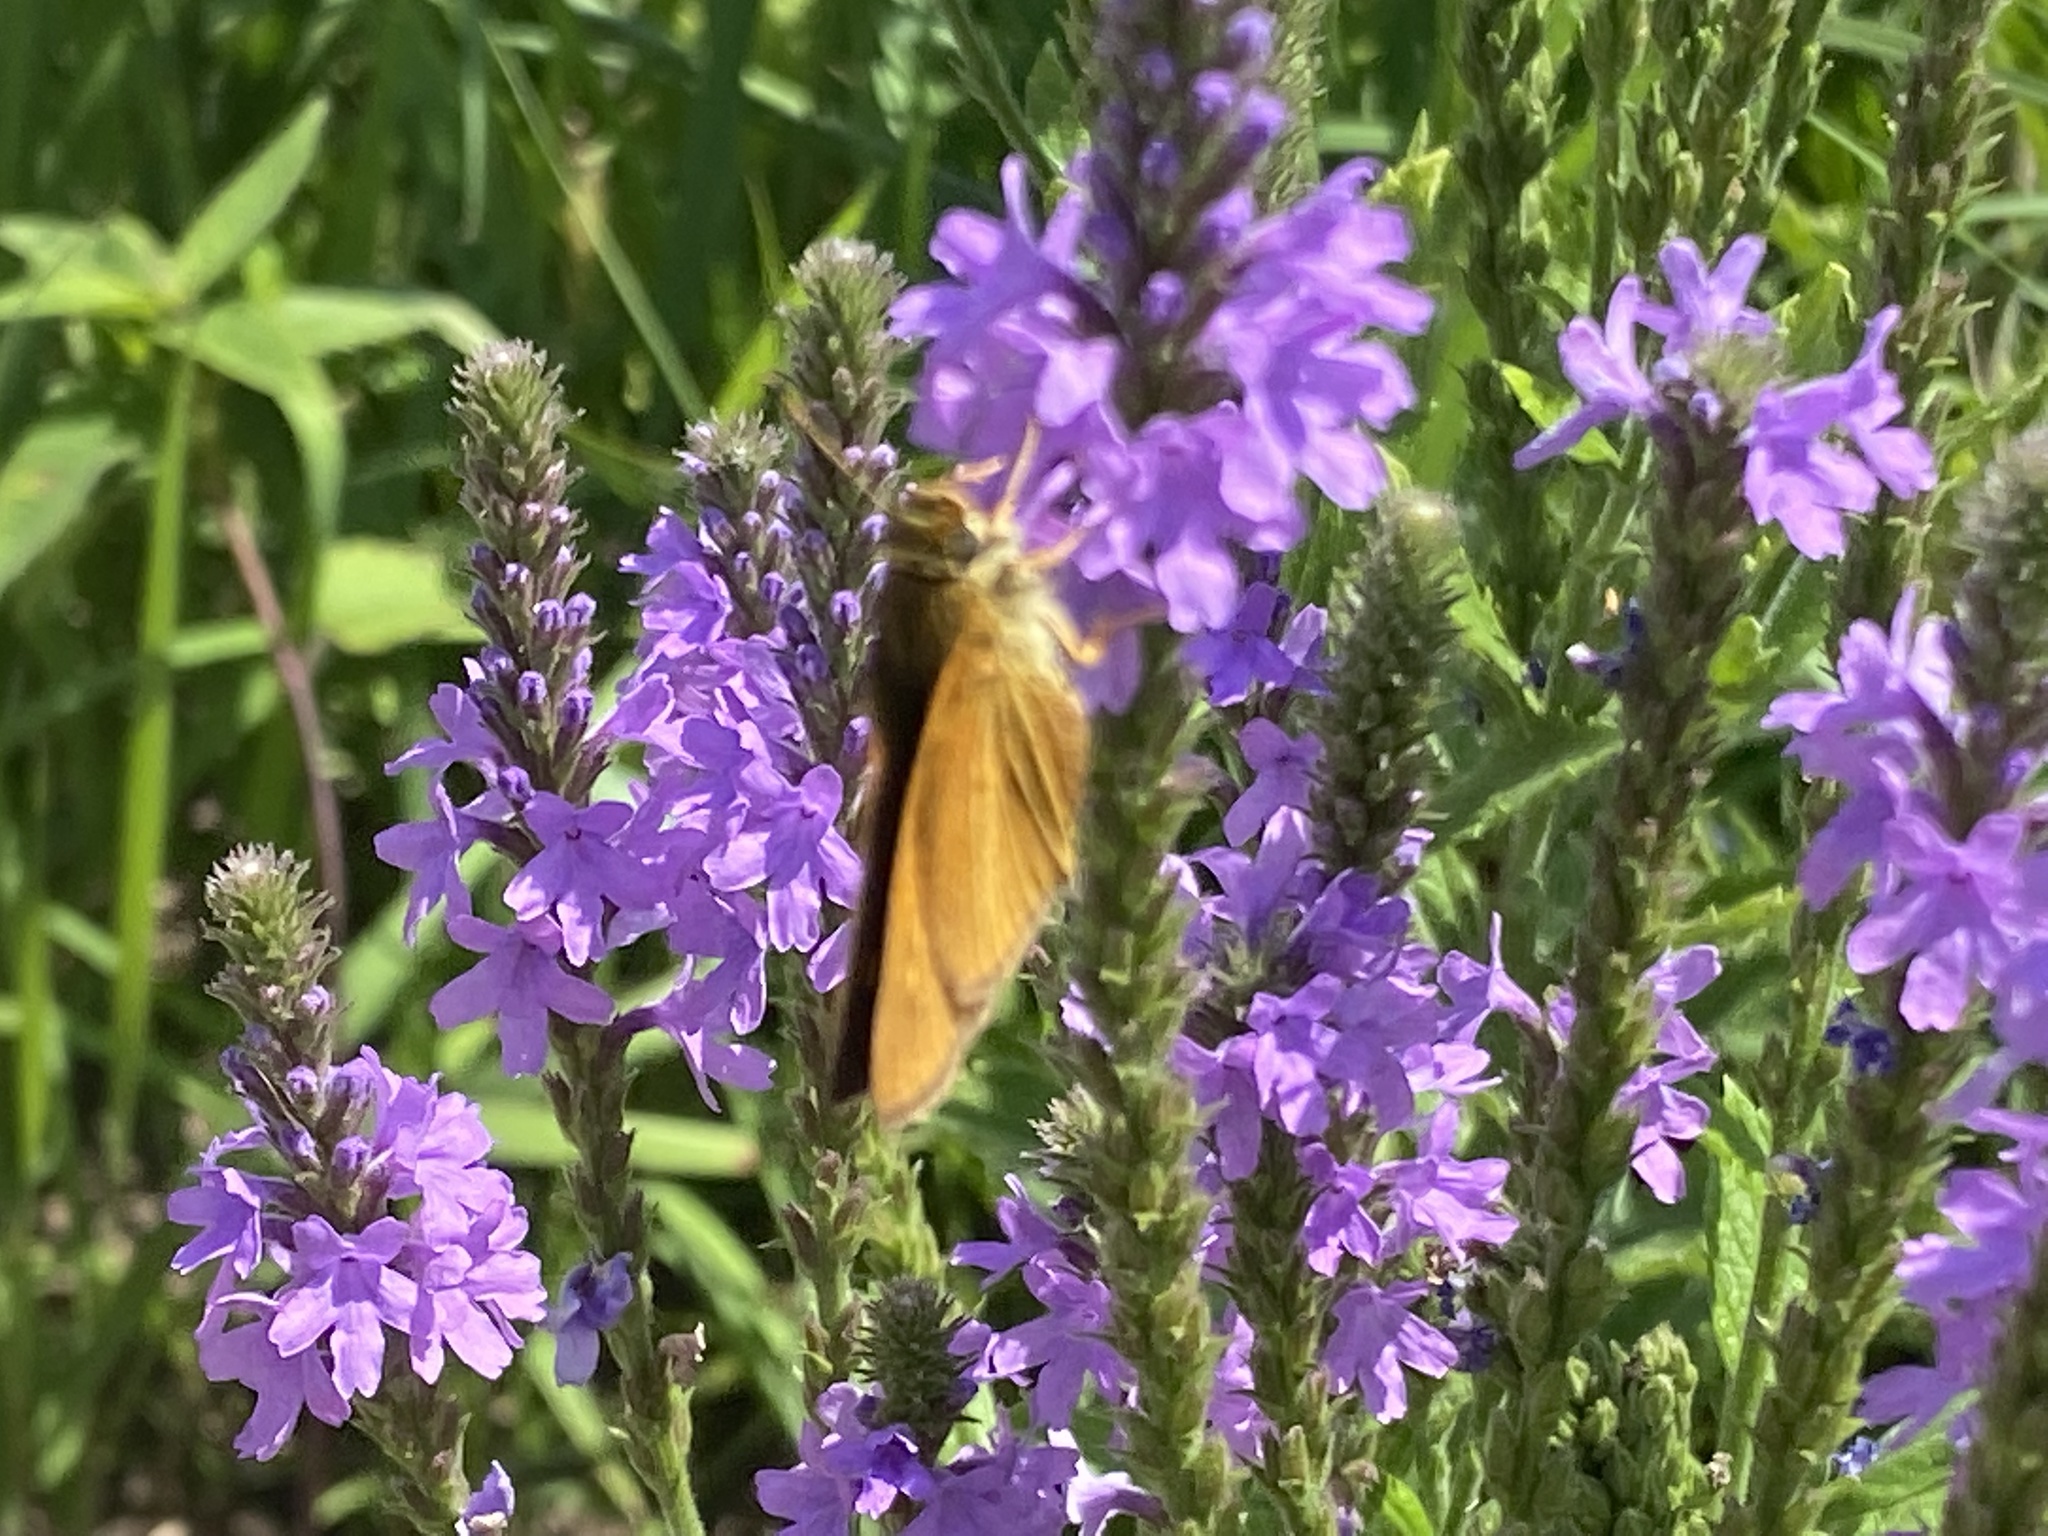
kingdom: Animalia
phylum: Arthropoda
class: Insecta
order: Lepidoptera
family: Hesperiidae
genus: Euphyes
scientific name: Euphyes dion
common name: Dion skipper
